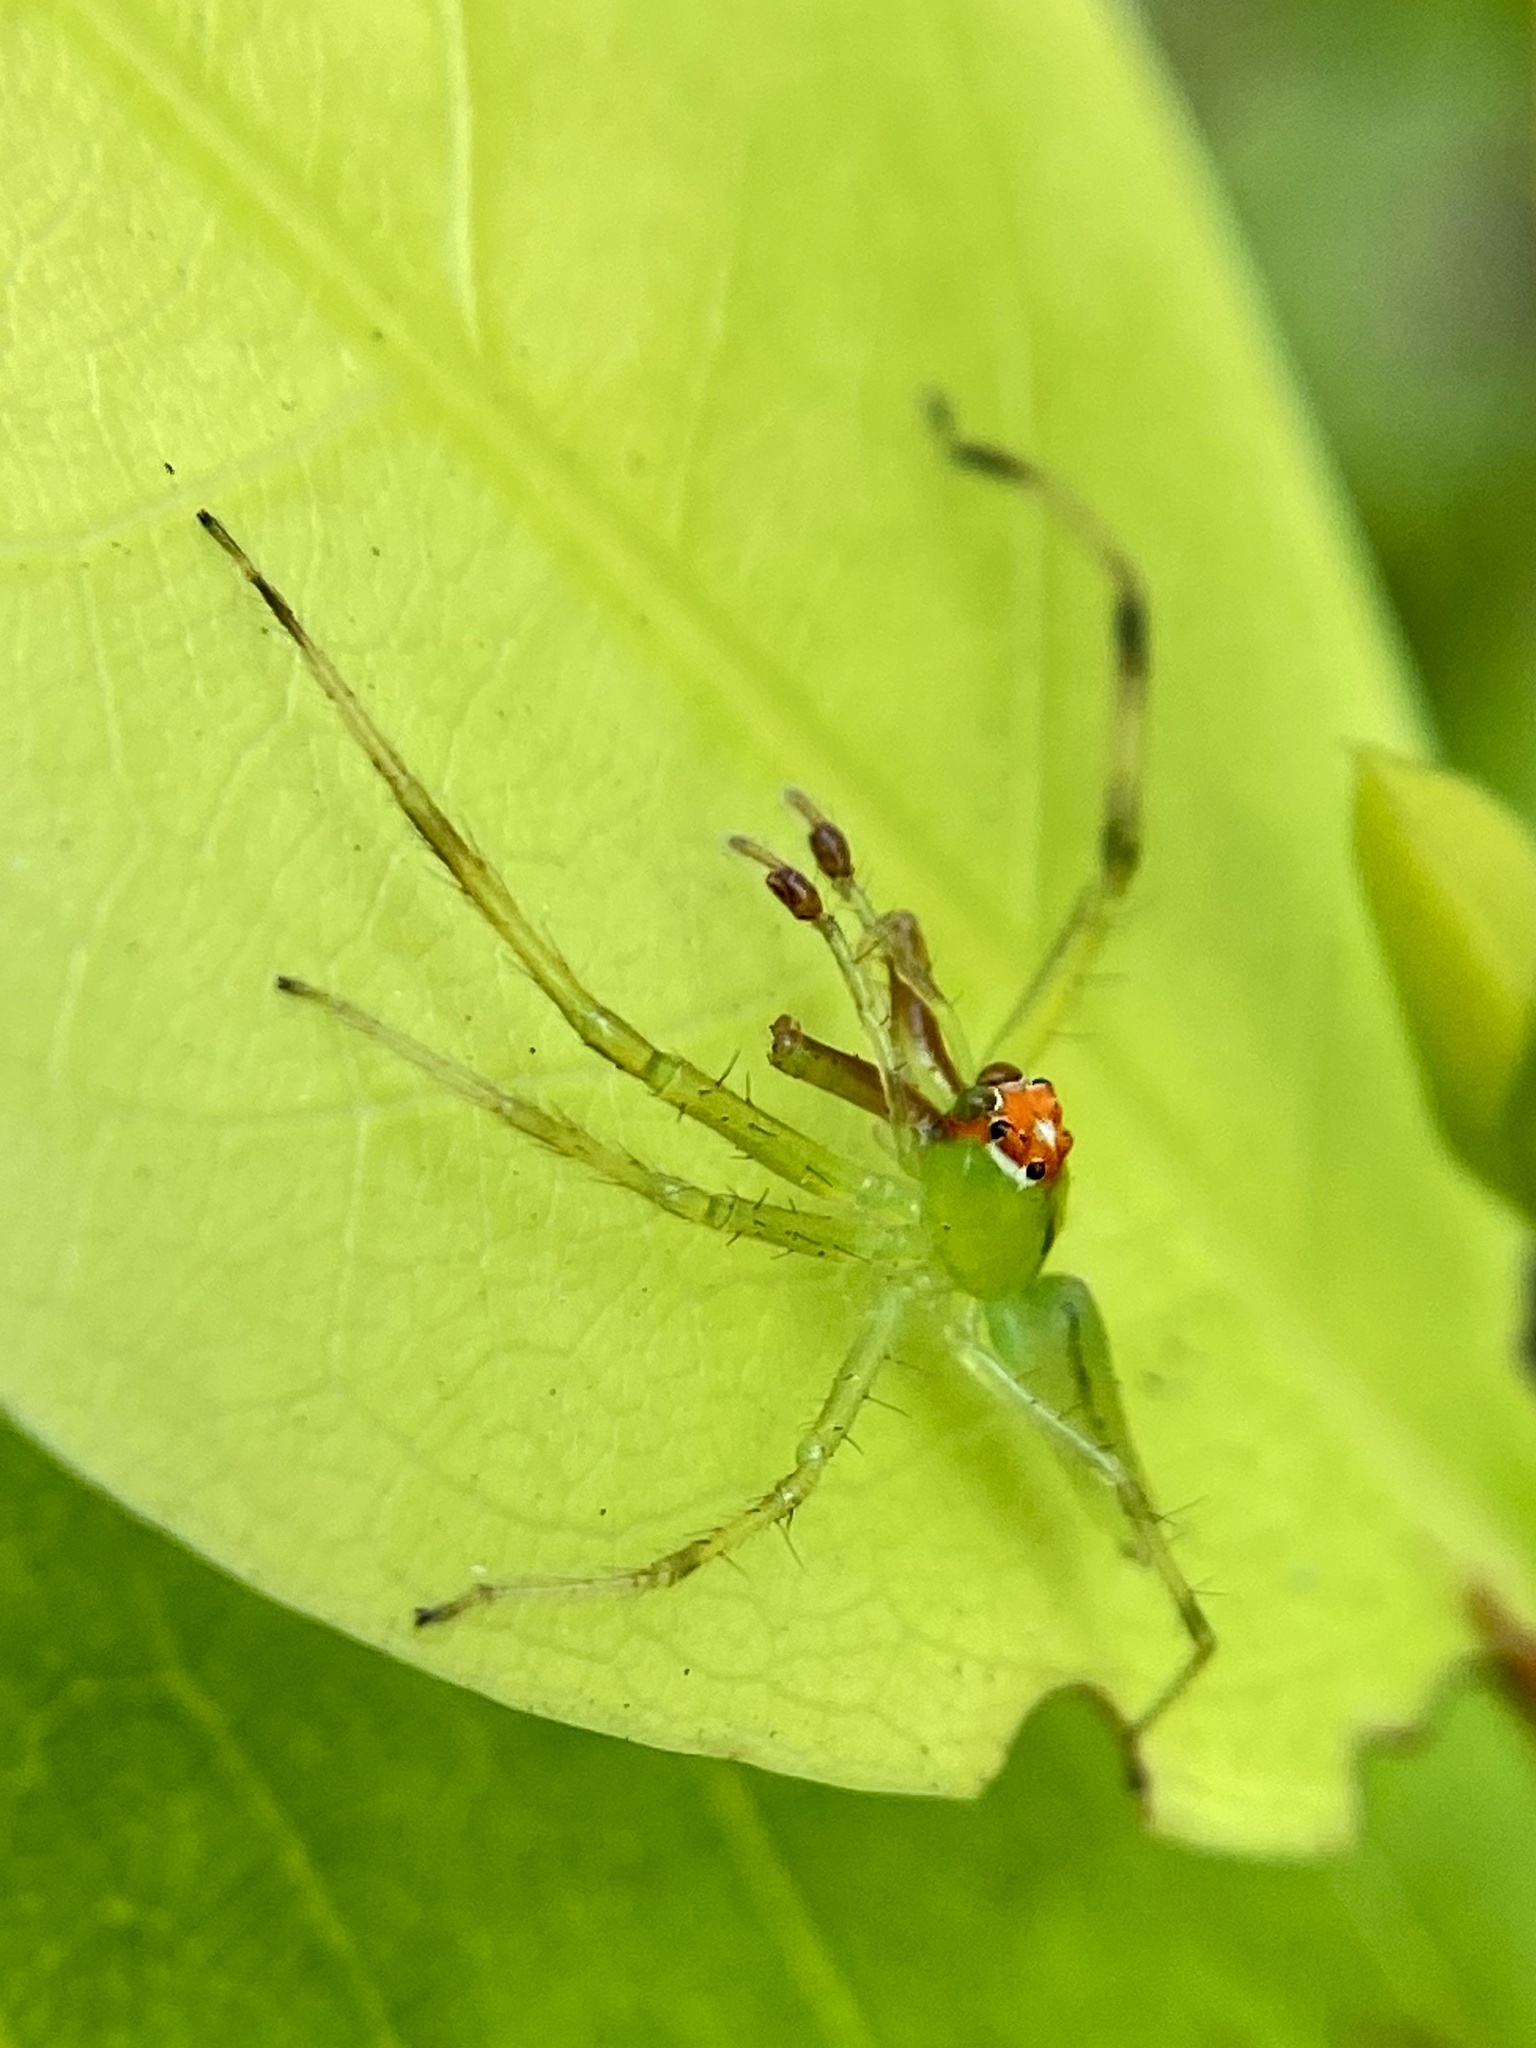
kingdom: Animalia
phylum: Arthropoda
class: Arachnida
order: Araneae
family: Salticidae
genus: Lyssomanes
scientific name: Lyssomanes viridis
